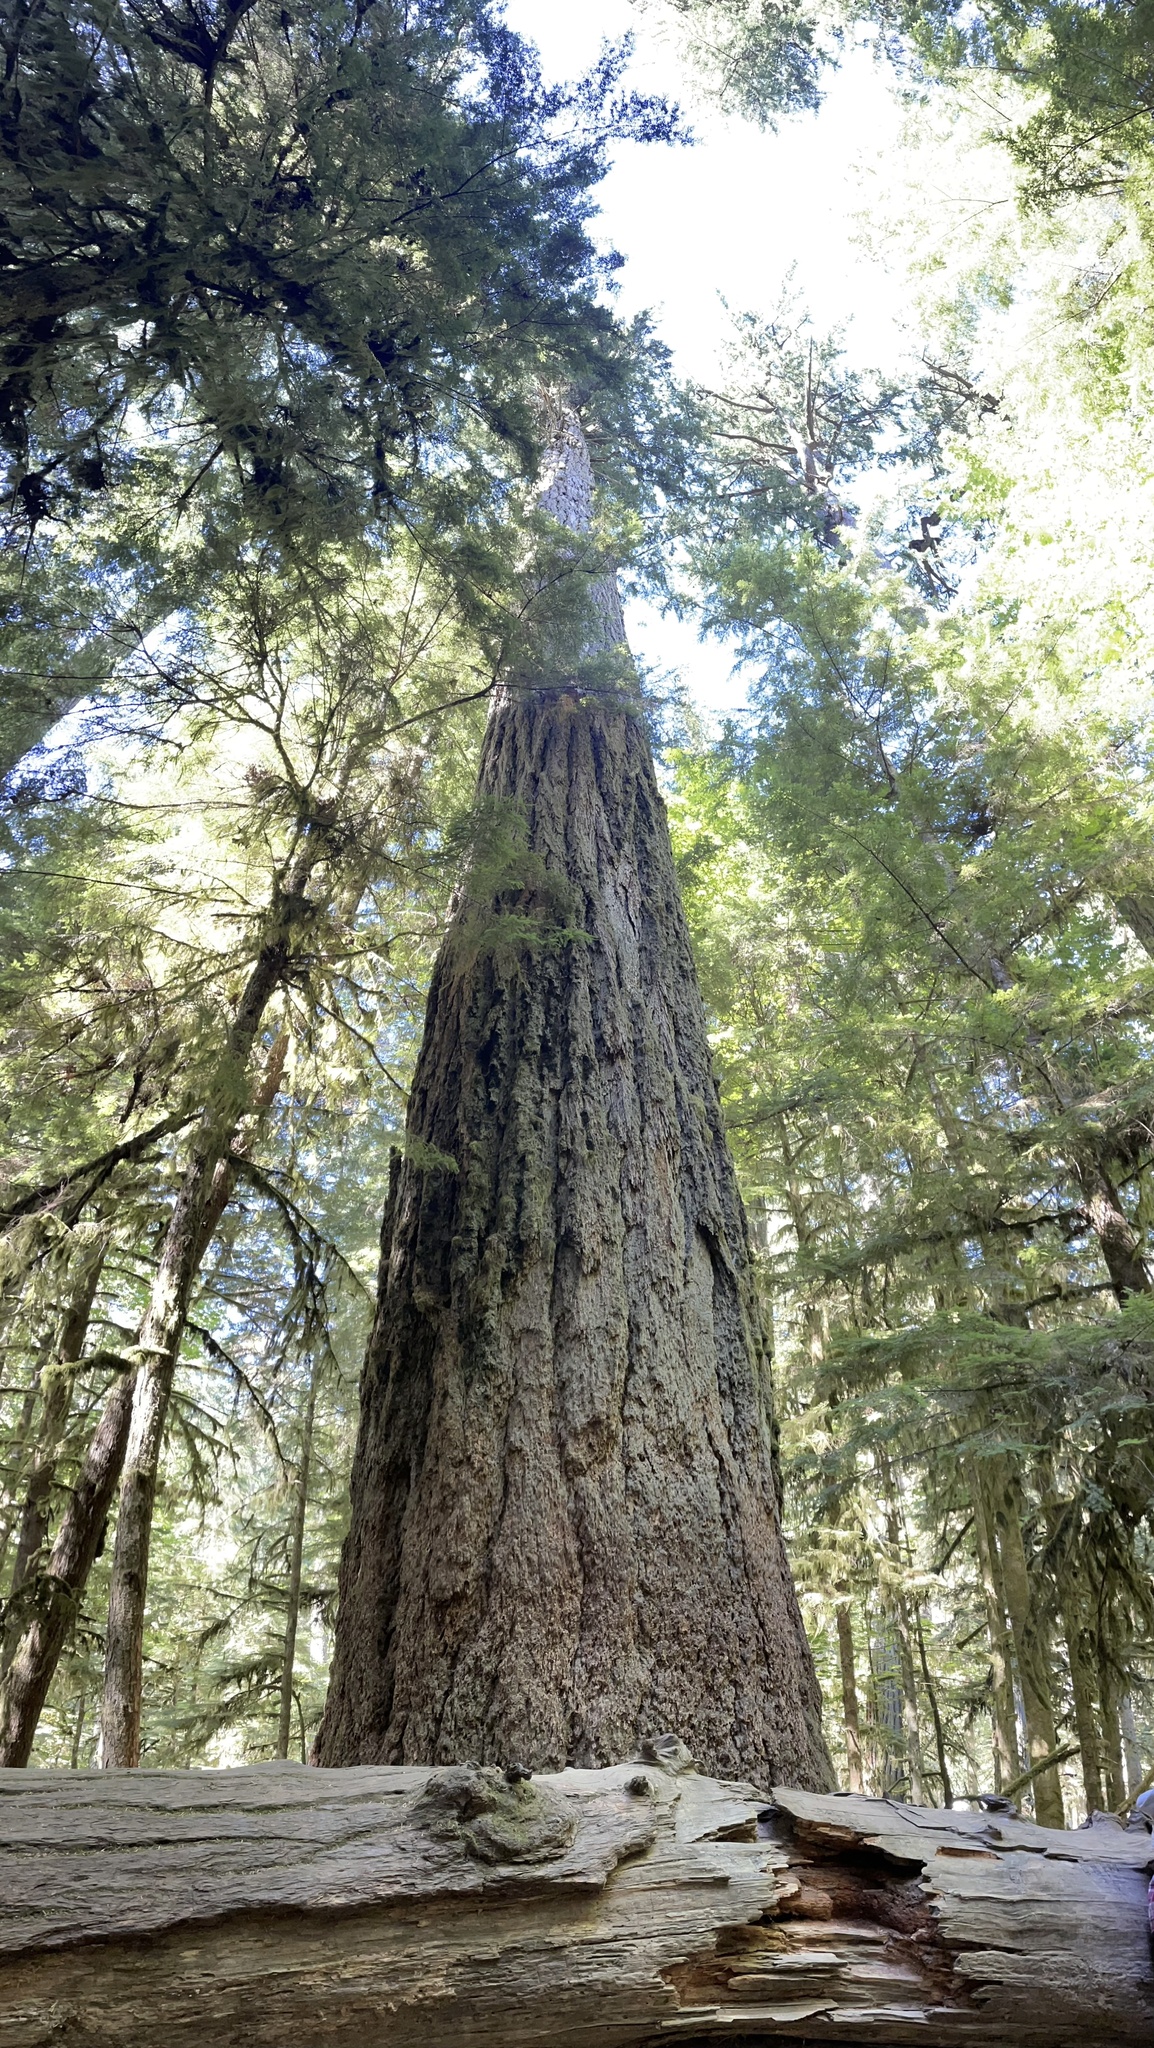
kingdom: Plantae
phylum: Tracheophyta
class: Pinopsida
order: Pinales
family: Pinaceae
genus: Pseudotsuga
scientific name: Pseudotsuga menziesii
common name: Douglas fir
